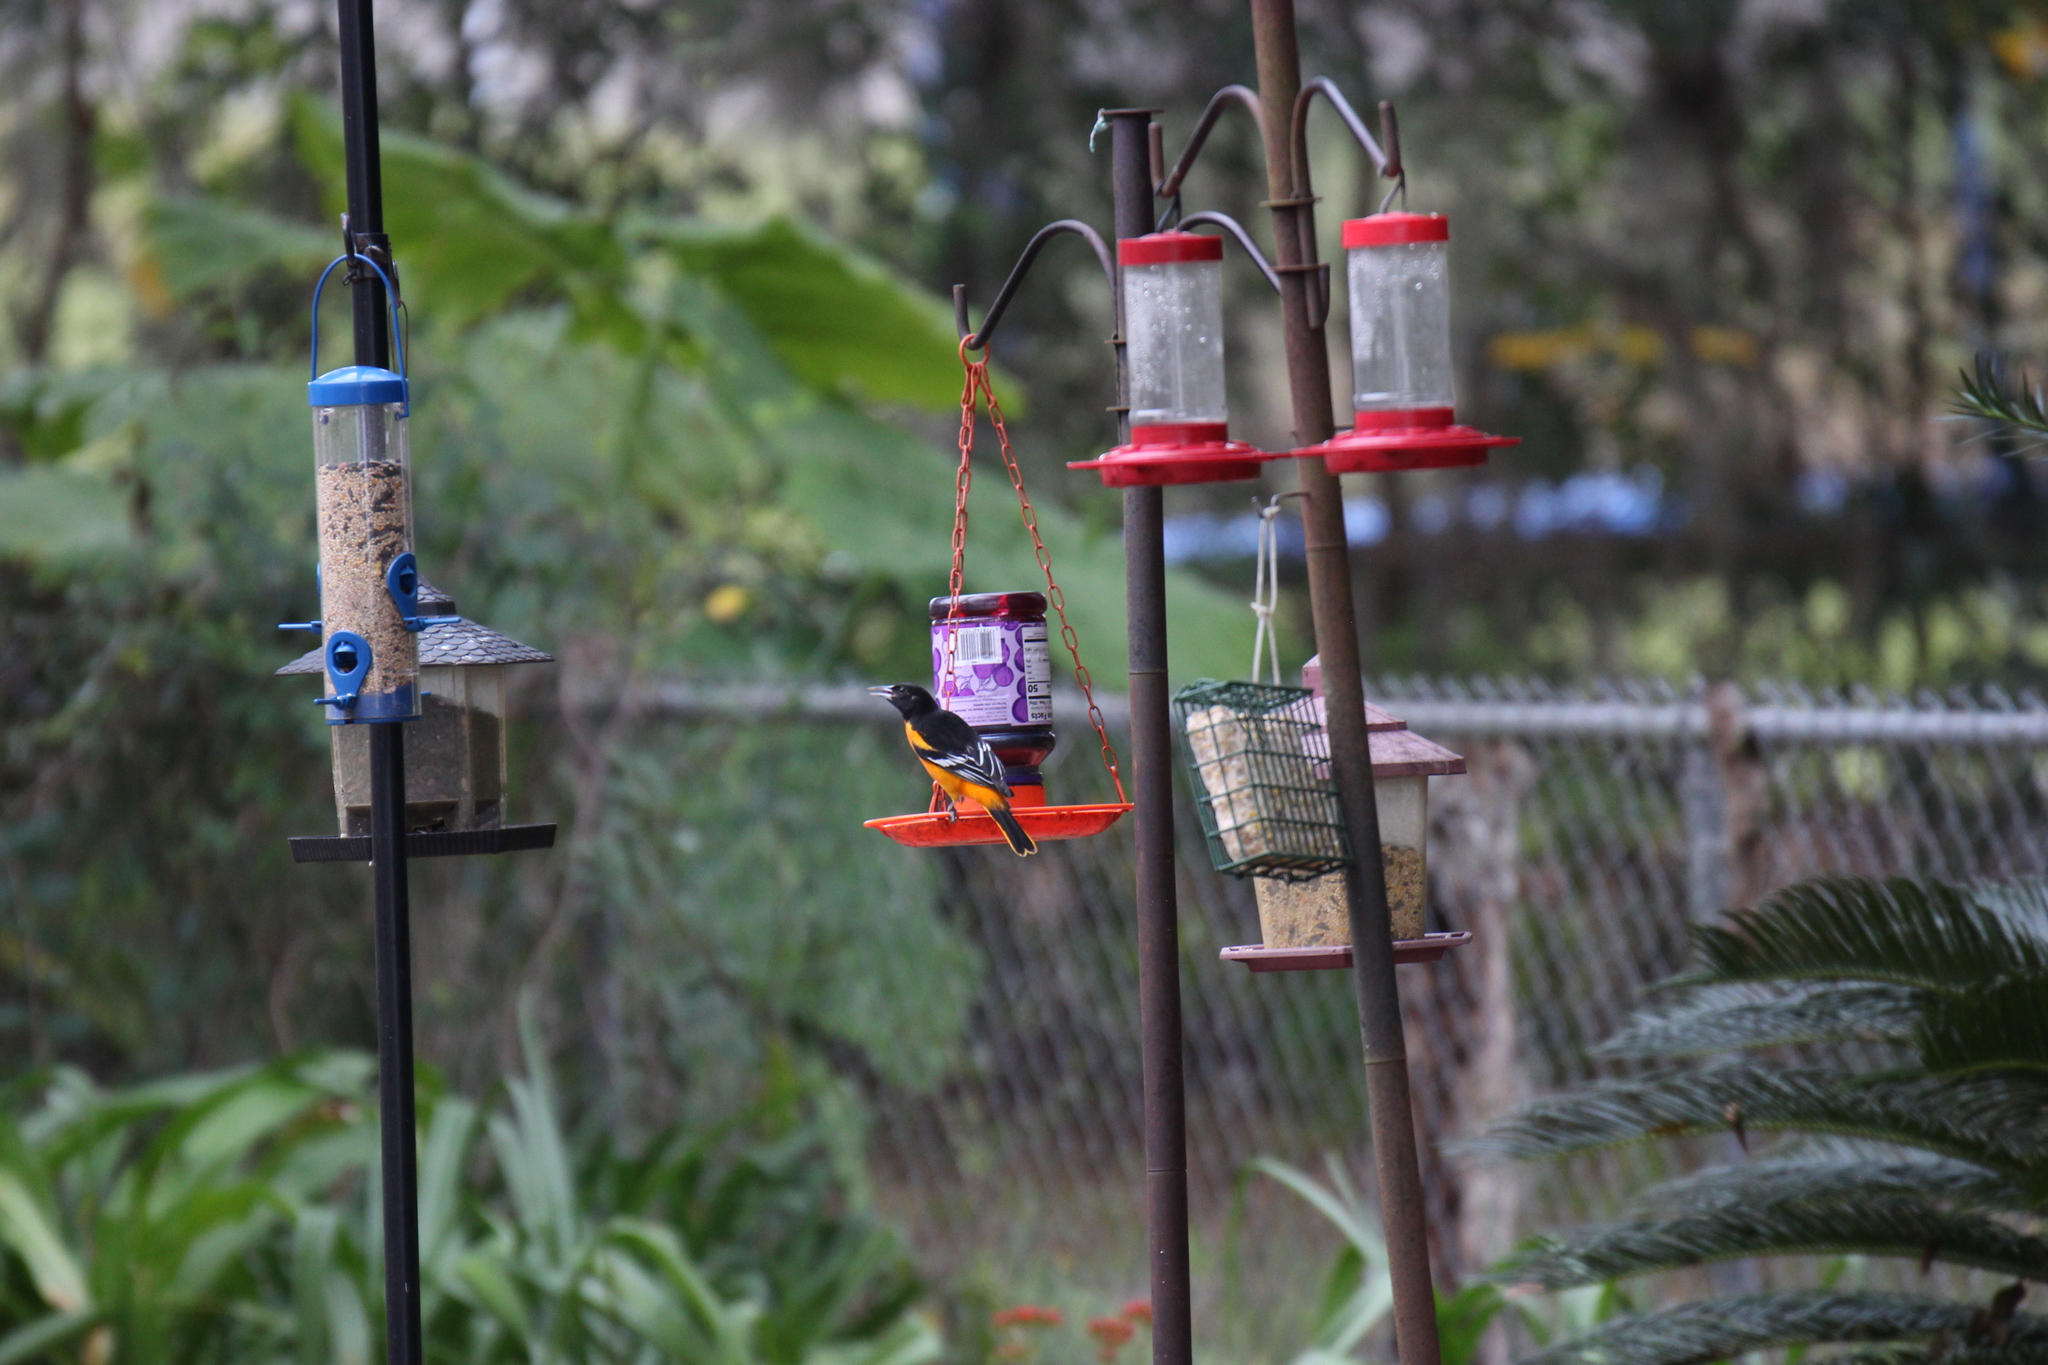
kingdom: Animalia
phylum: Chordata
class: Aves
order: Passeriformes
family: Icteridae
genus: Icterus
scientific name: Icterus galbula
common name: Baltimore oriole
